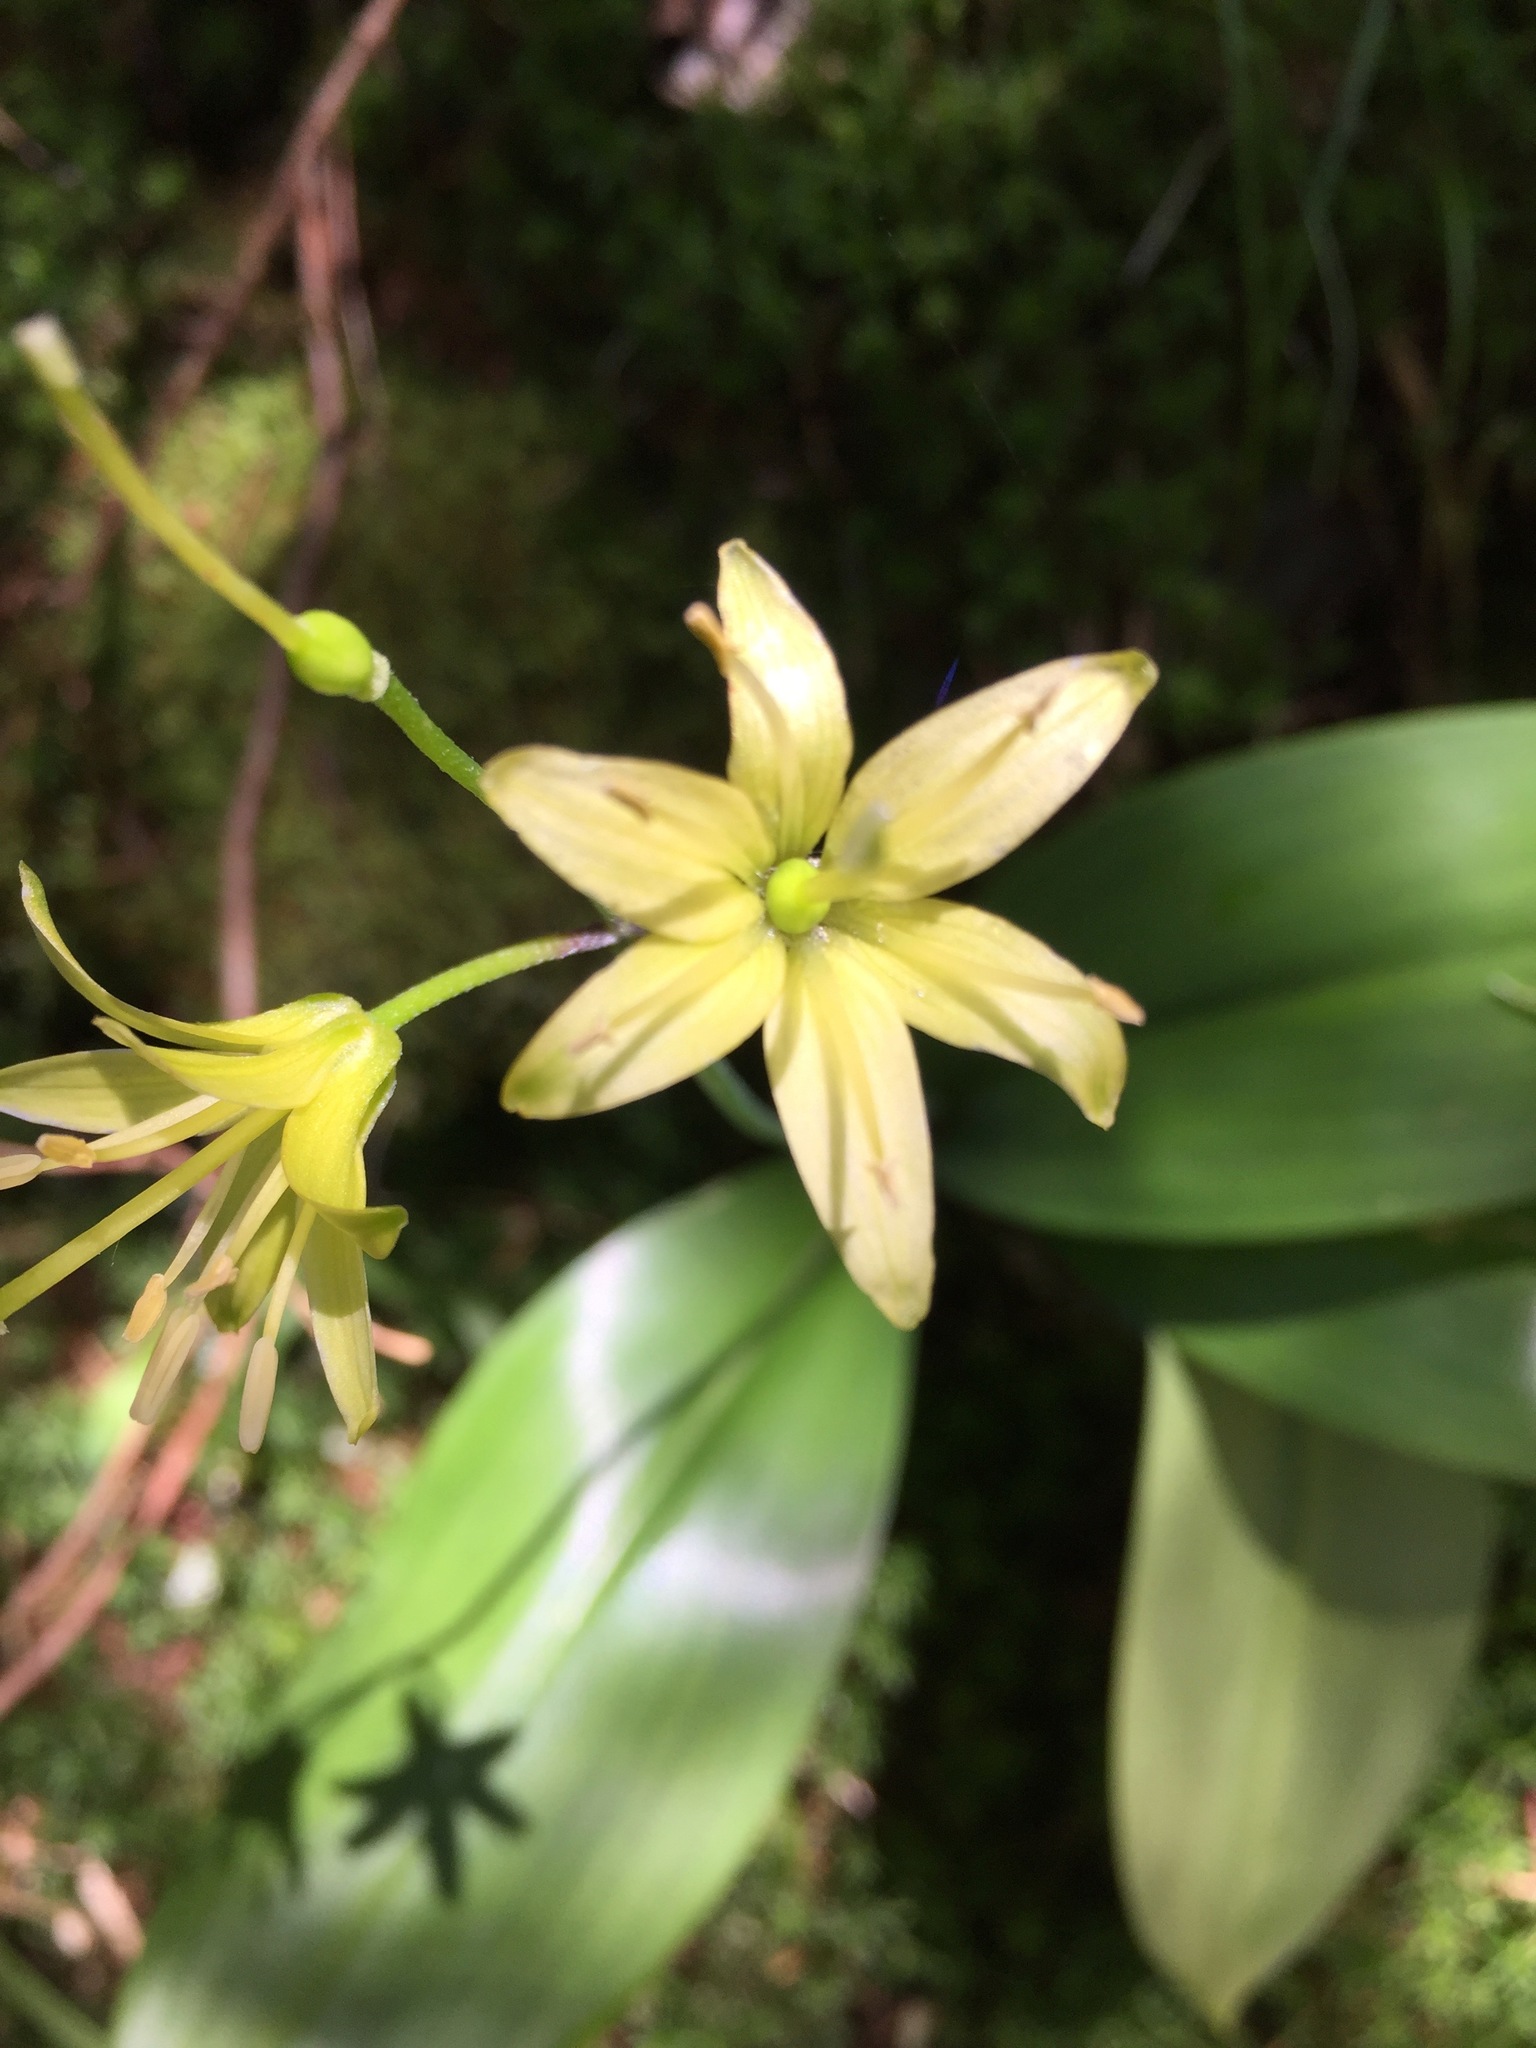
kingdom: Plantae
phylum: Tracheophyta
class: Liliopsida
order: Liliales
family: Liliaceae
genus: Clintonia
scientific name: Clintonia borealis
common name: Yellow clintonia
